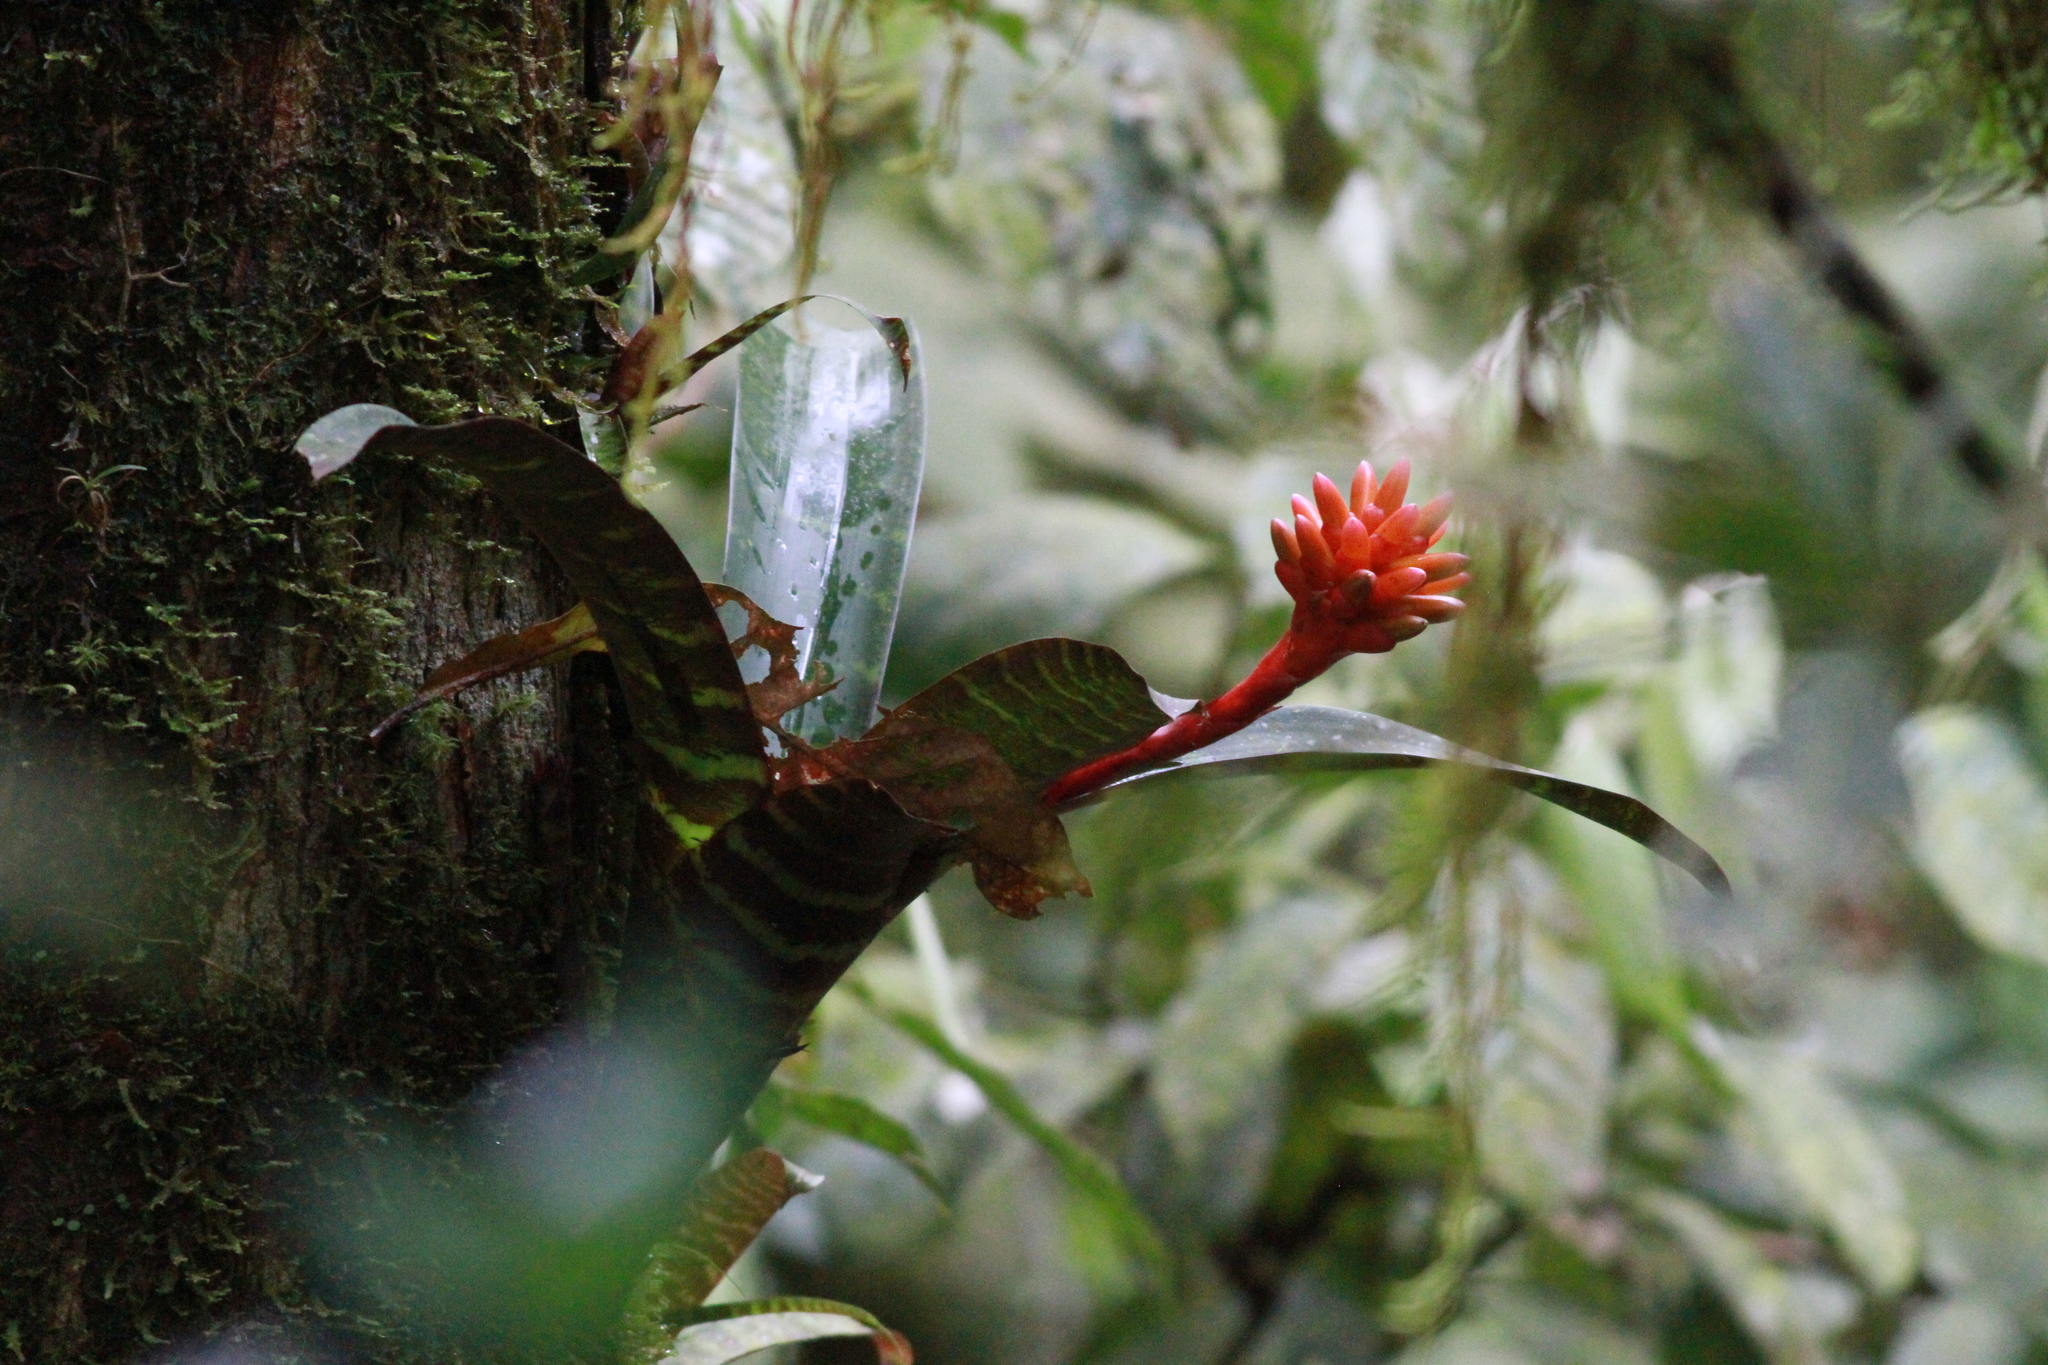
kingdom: Plantae
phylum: Tracheophyta
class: Liliopsida
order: Poales
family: Bromeliaceae
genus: Guzmania
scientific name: Guzmania musaica
